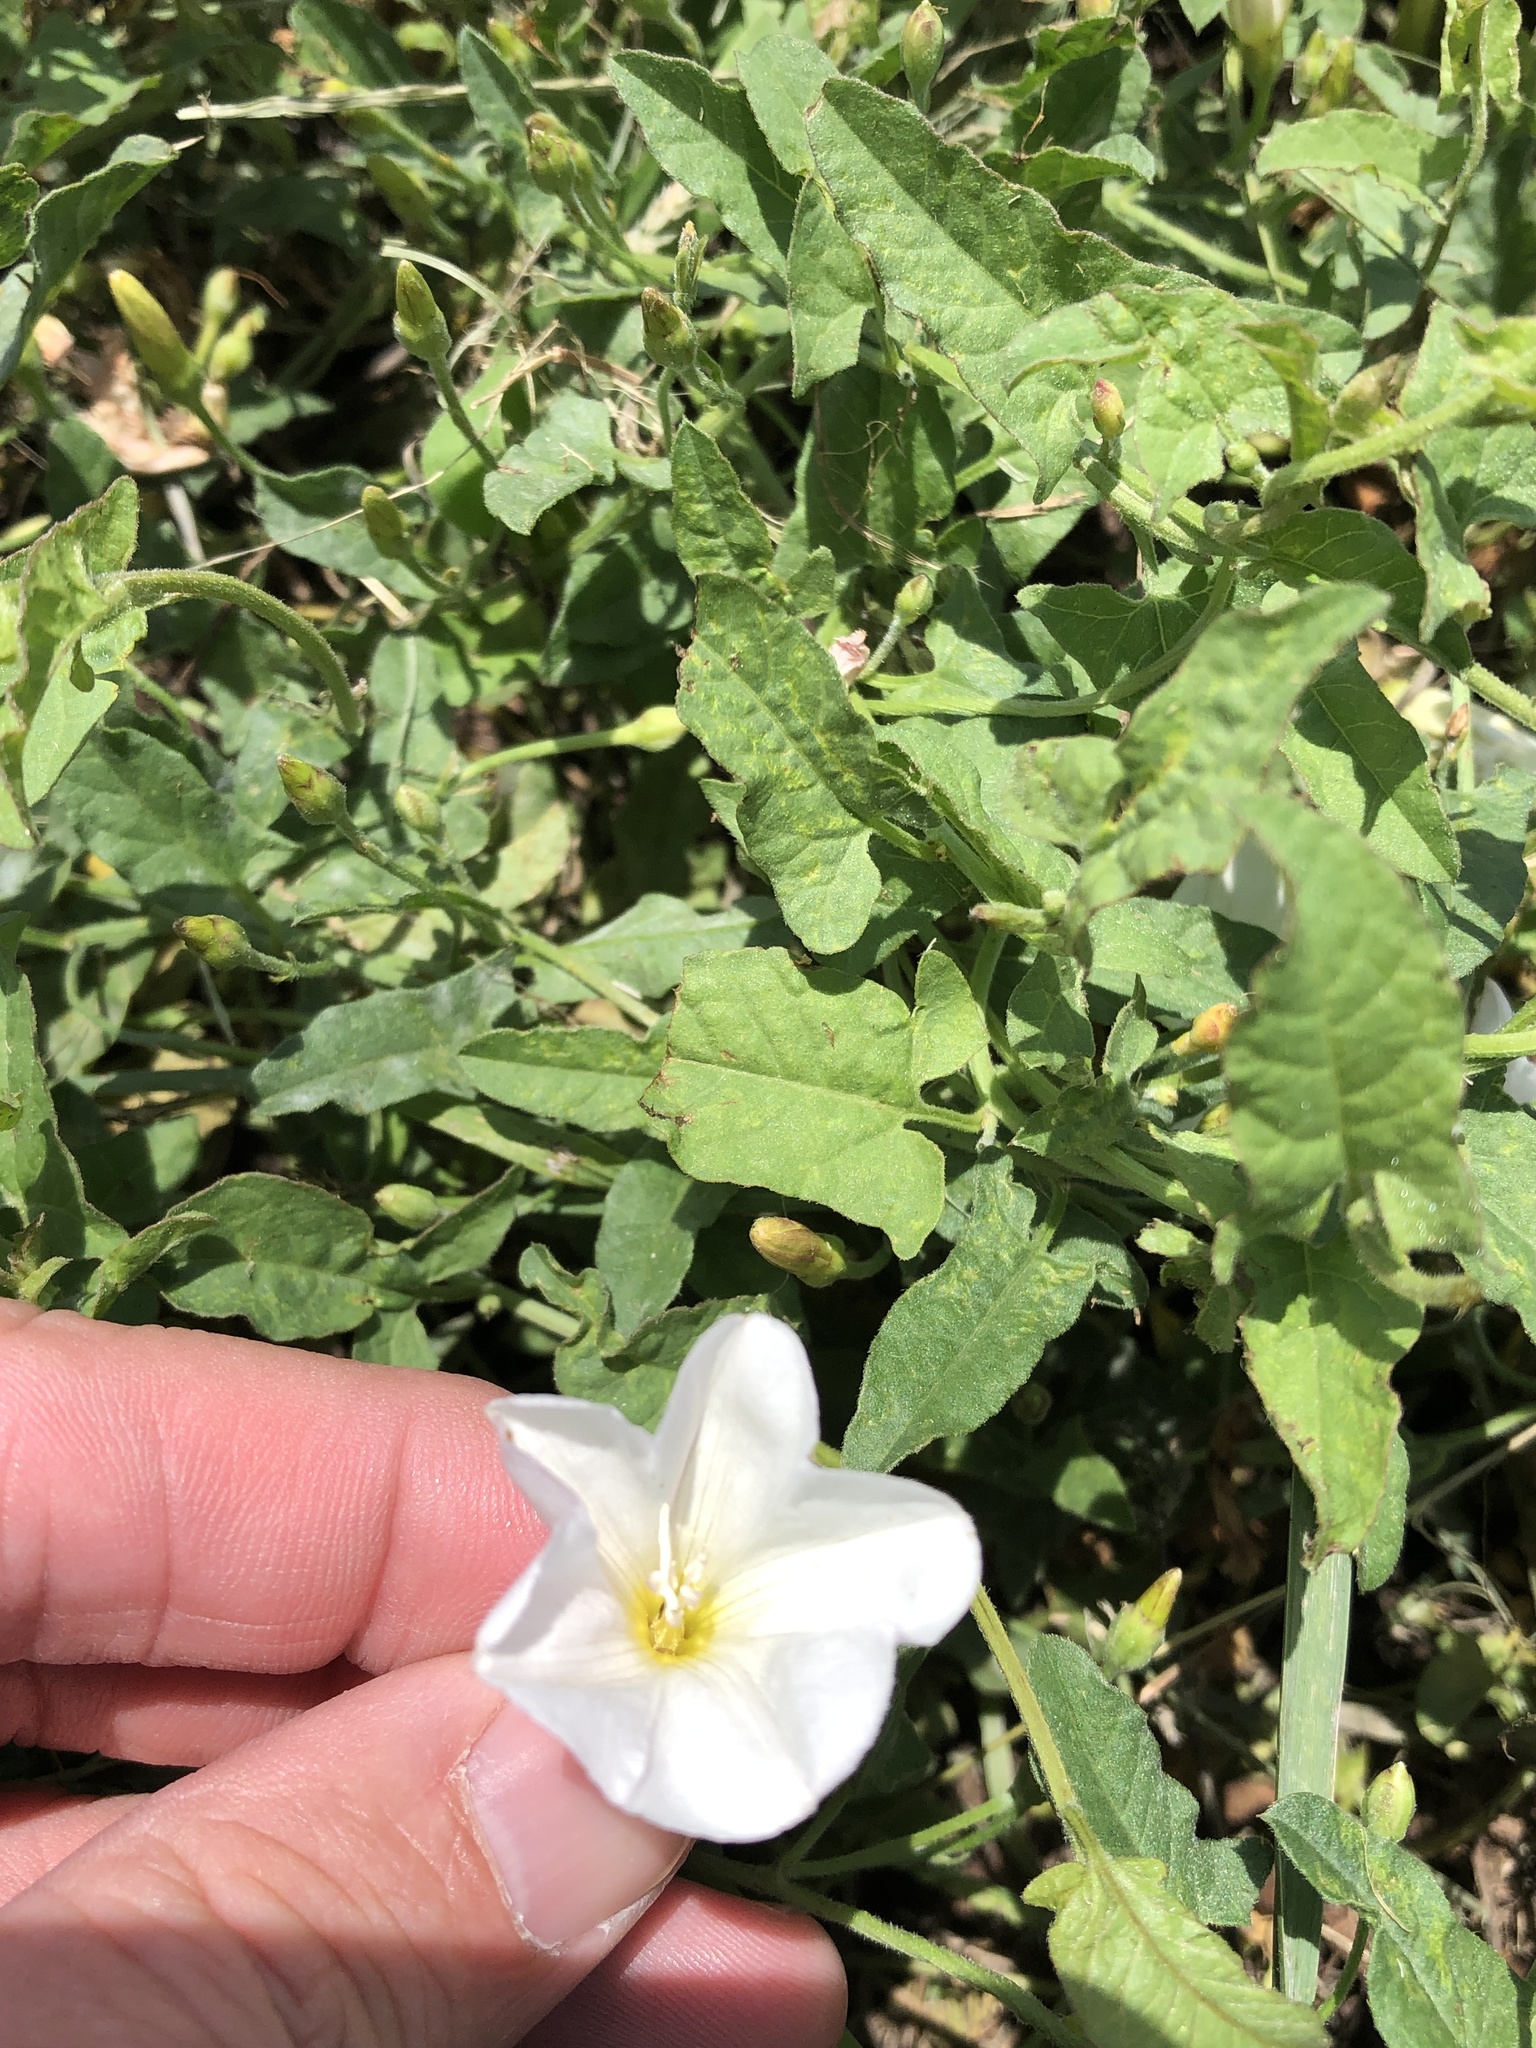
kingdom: Plantae
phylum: Tracheophyta
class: Magnoliopsida
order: Solanales
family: Convolvulaceae
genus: Convolvulus
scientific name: Convolvulus arvensis
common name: Field bindweed
